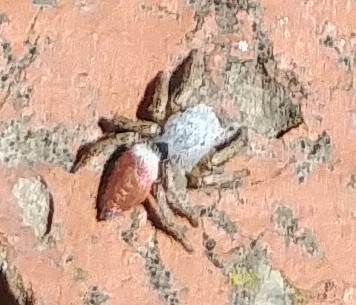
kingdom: Animalia
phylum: Arthropoda
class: Arachnida
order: Araneae
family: Salticidae
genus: Habronattus
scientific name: Habronattus decorus
